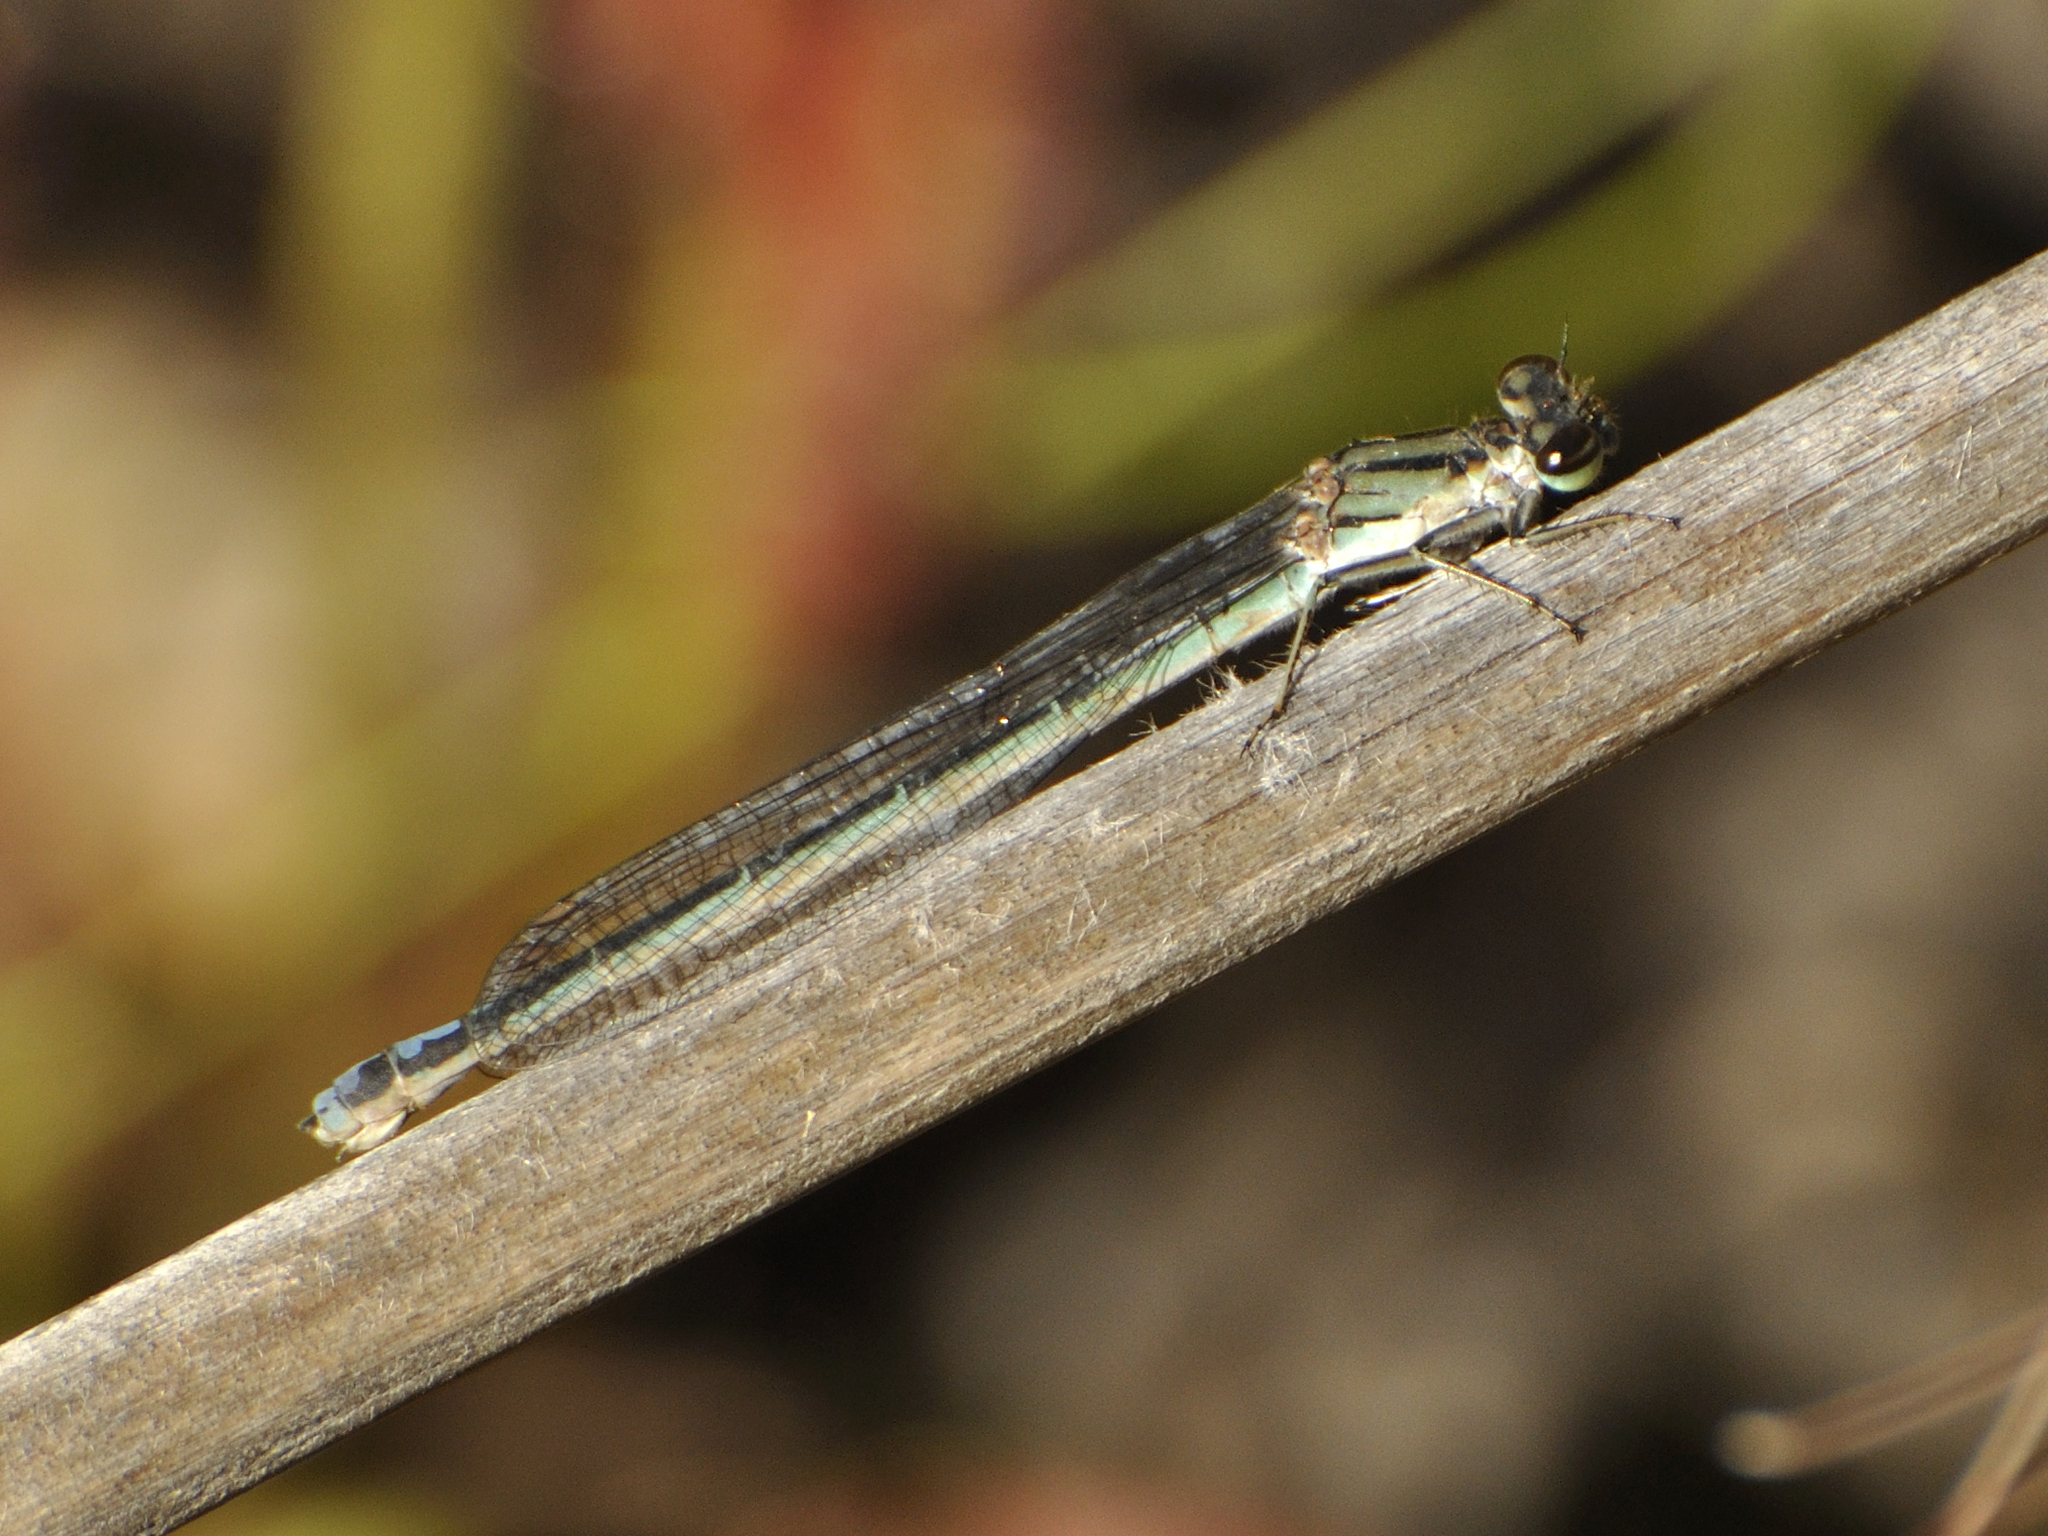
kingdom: Animalia
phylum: Arthropoda
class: Insecta
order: Odonata
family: Coenagrionidae
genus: Pseudagrion
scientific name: Pseudagrion furcigerum
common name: Palmiet sprite
